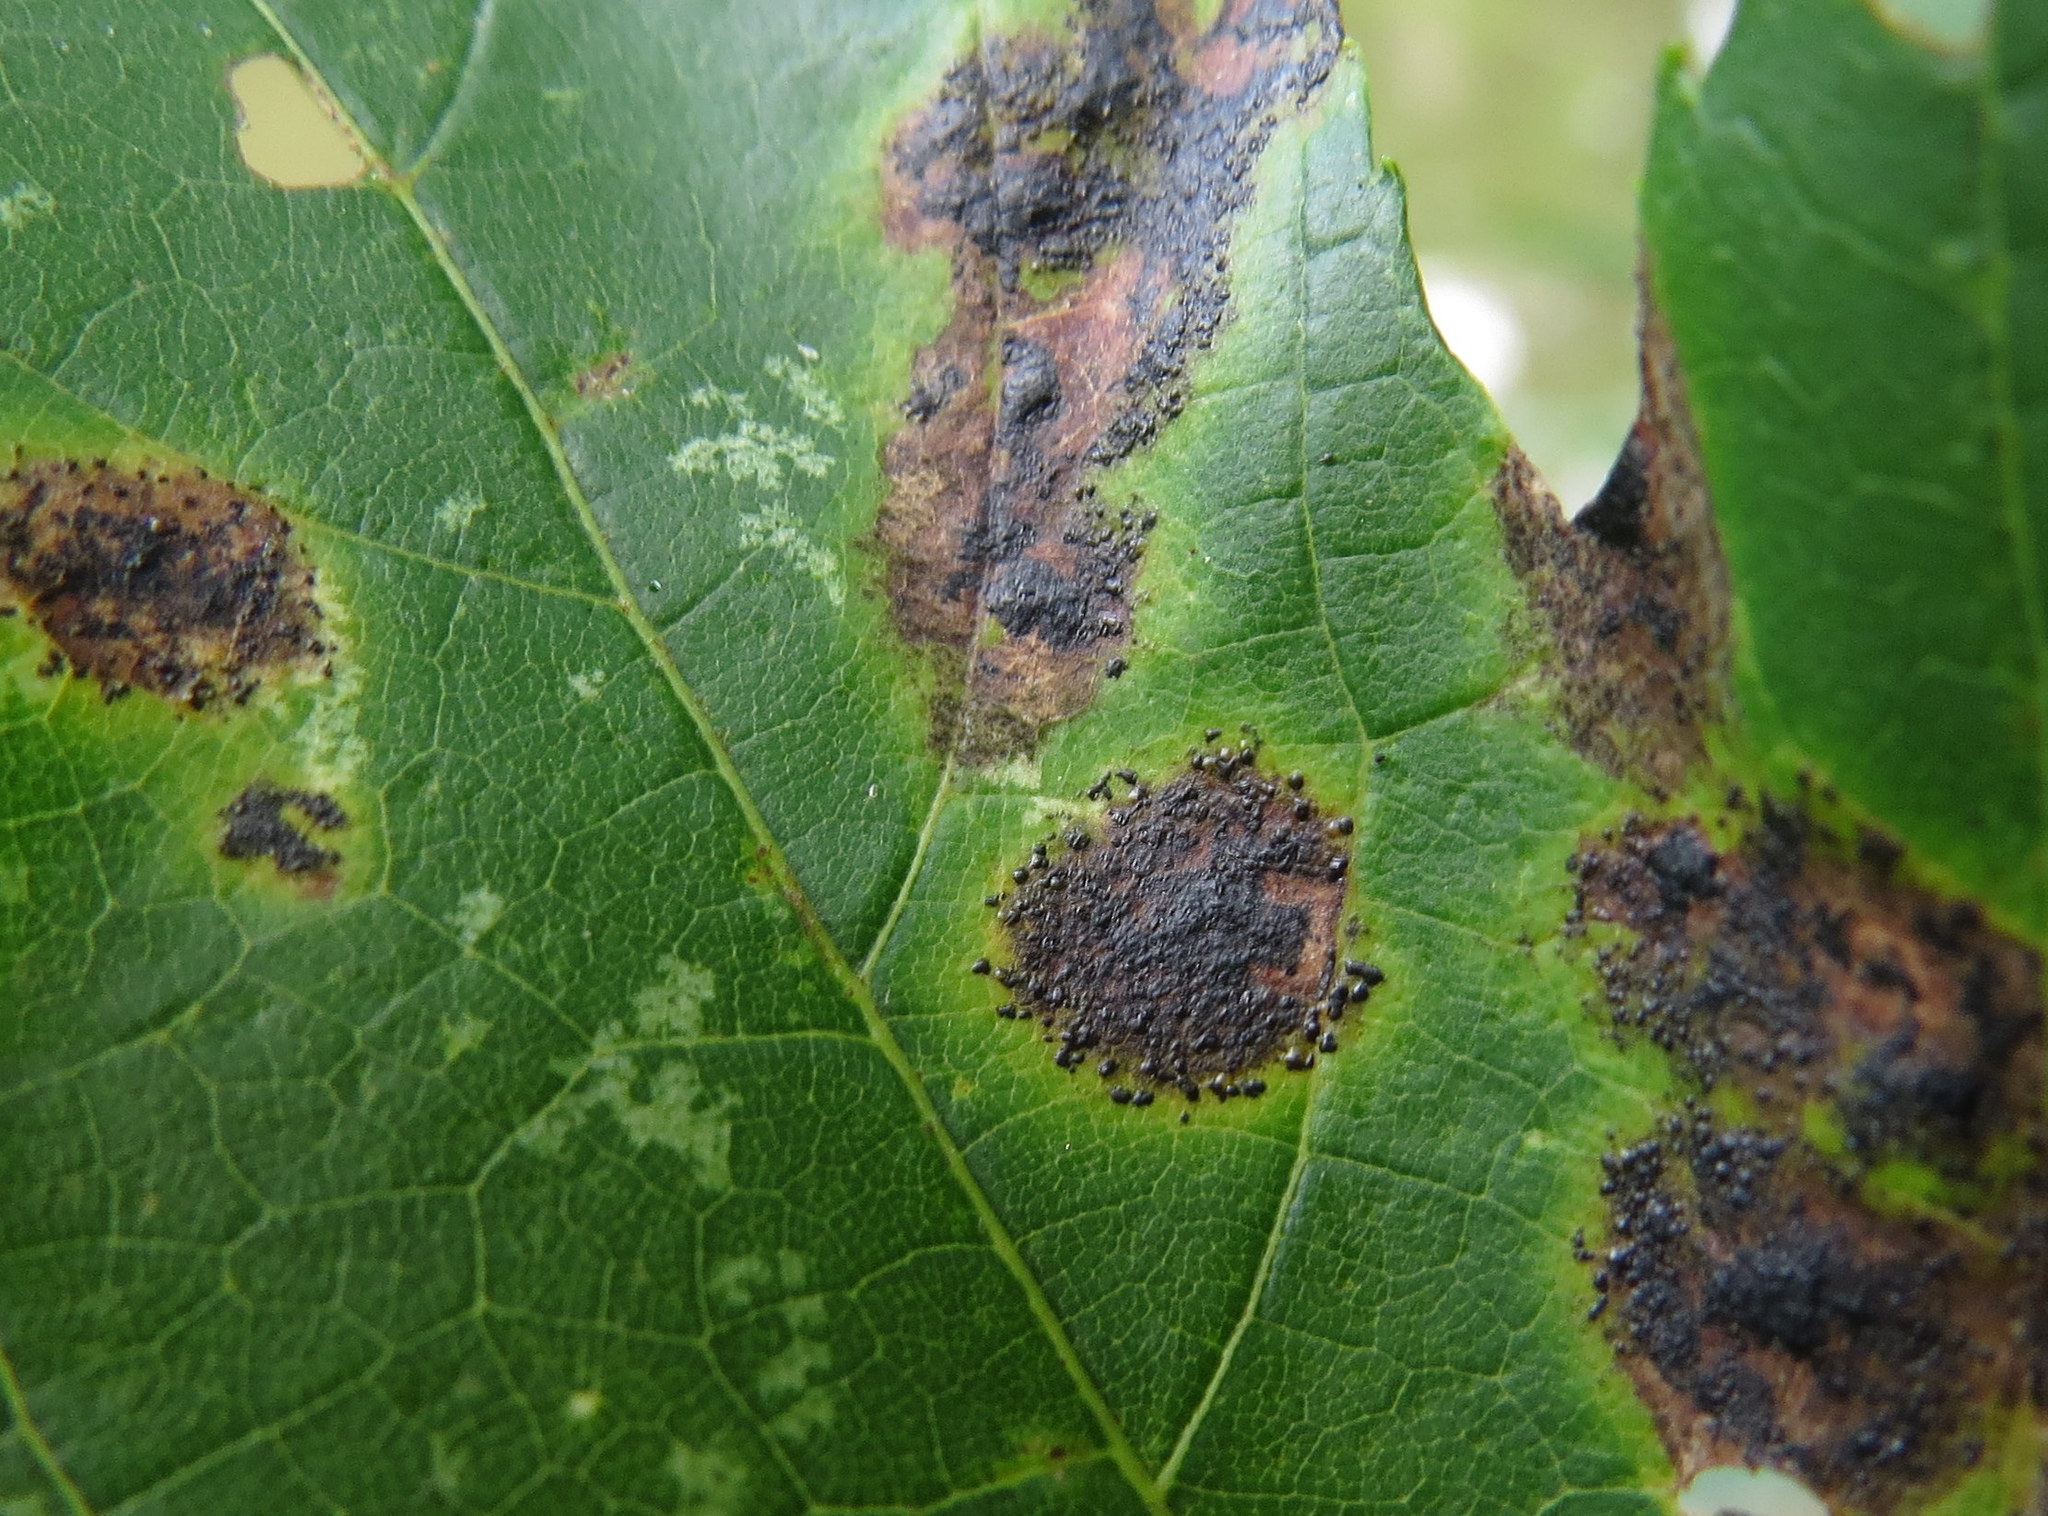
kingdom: Fungi
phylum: Ascomycota
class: Leotiomycetes
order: Rhytismatales
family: Rhytismataceae
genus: Rhytisma
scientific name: Rhytisma americanum
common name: American tar spot
